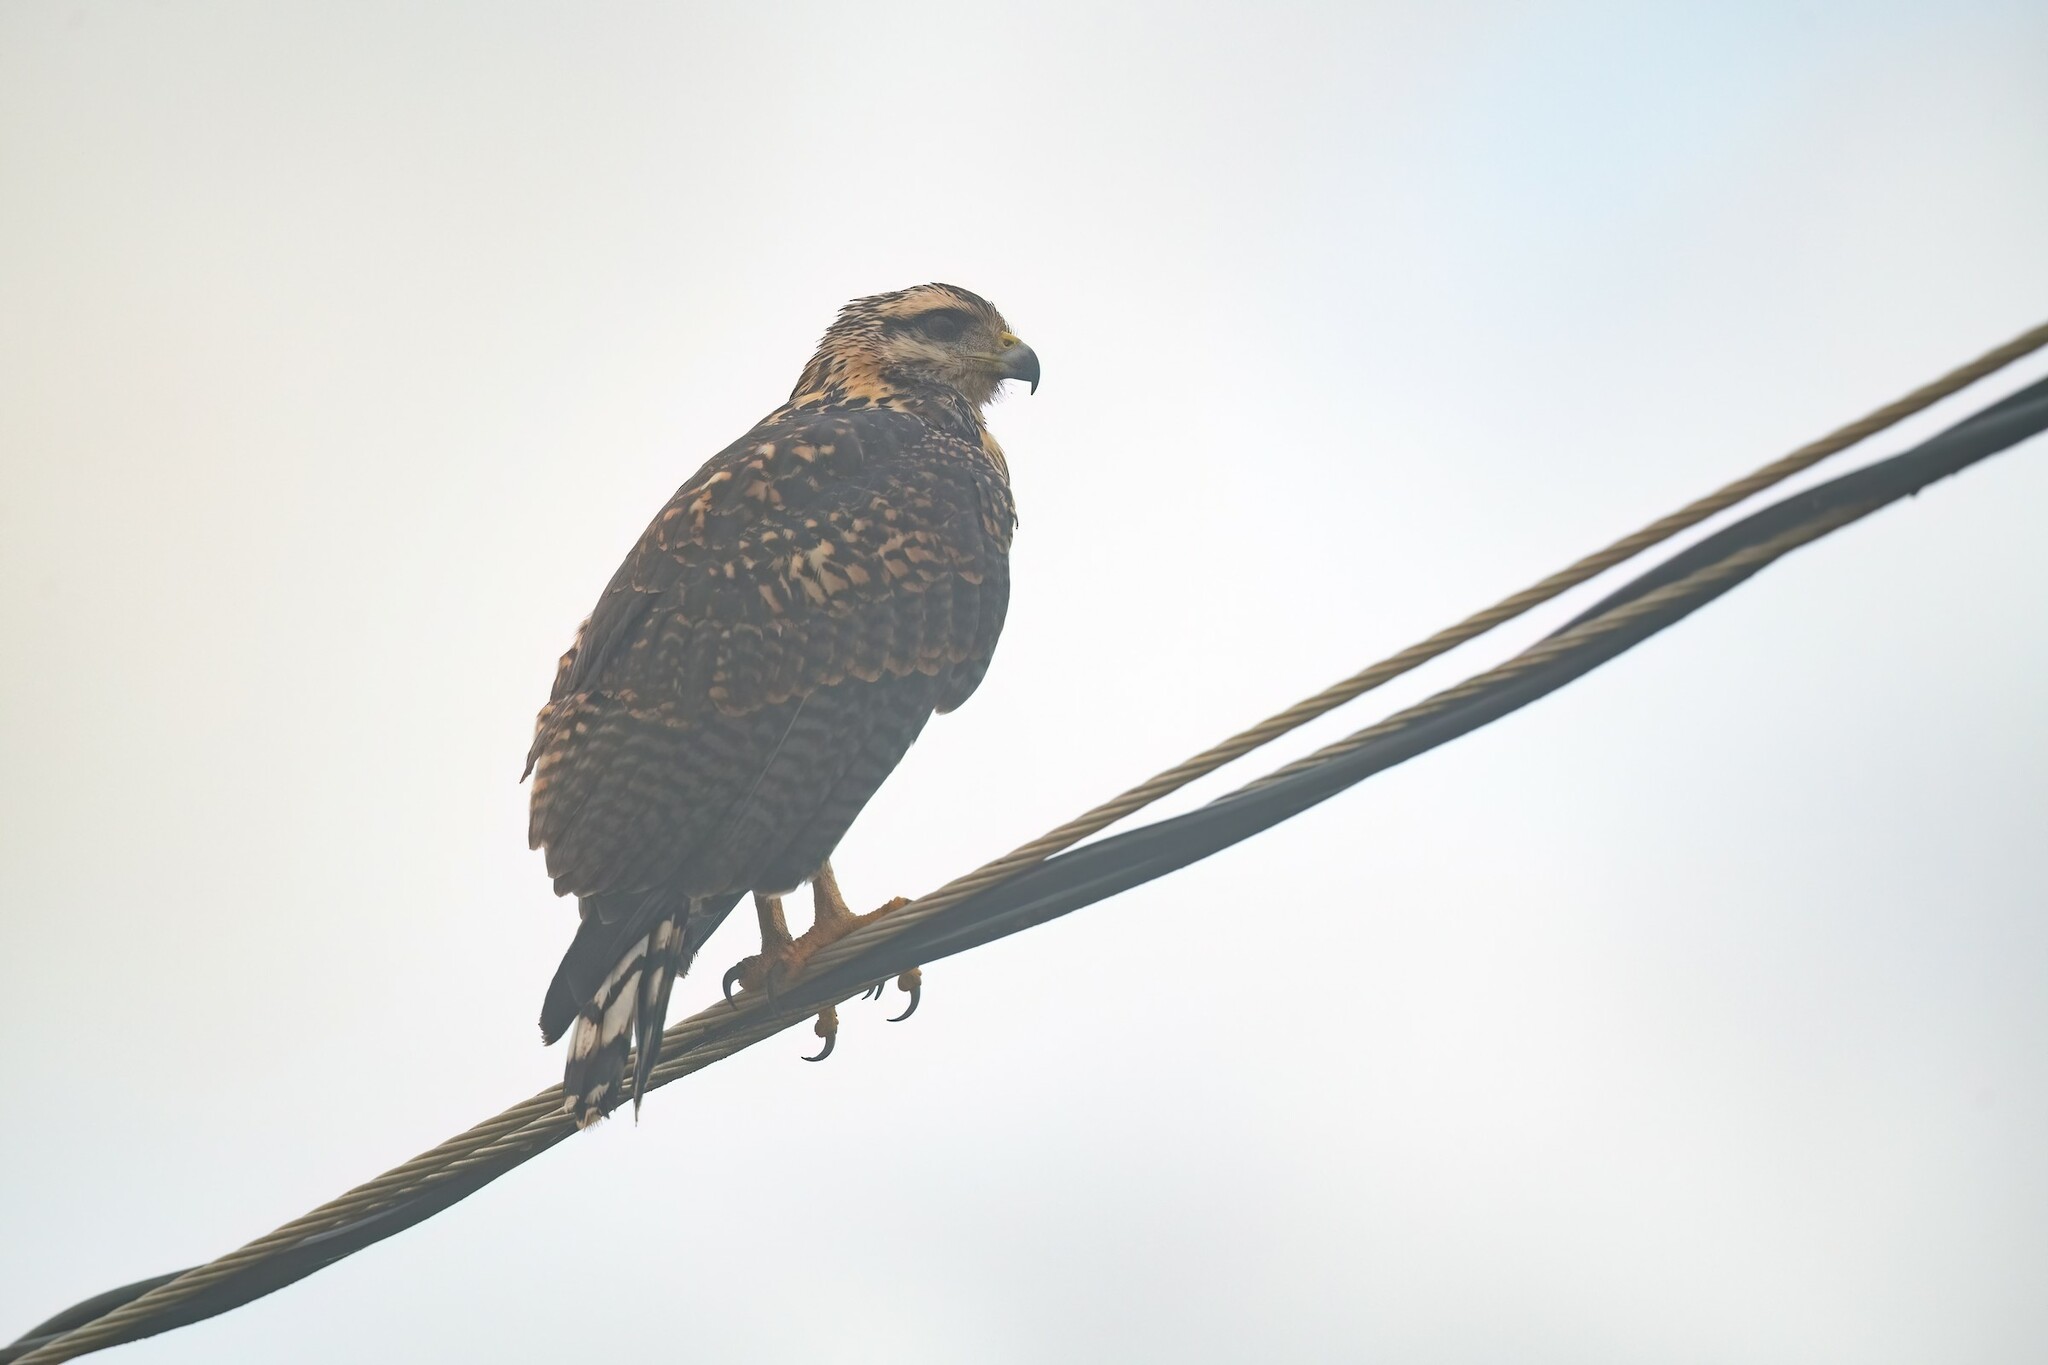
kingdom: Animalia
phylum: Chordata
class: Aves
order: Accipitriformes
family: Accipitridae
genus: Buteogallus
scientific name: Buteogallus anthracinus
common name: Common black hawk
